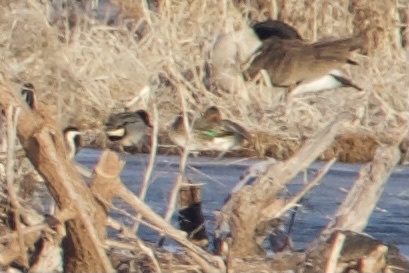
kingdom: Animalia
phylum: Chordata
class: Aves
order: Anseriformes
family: Anatidae
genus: Anas
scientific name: Anas crecca
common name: Eurasian teal
